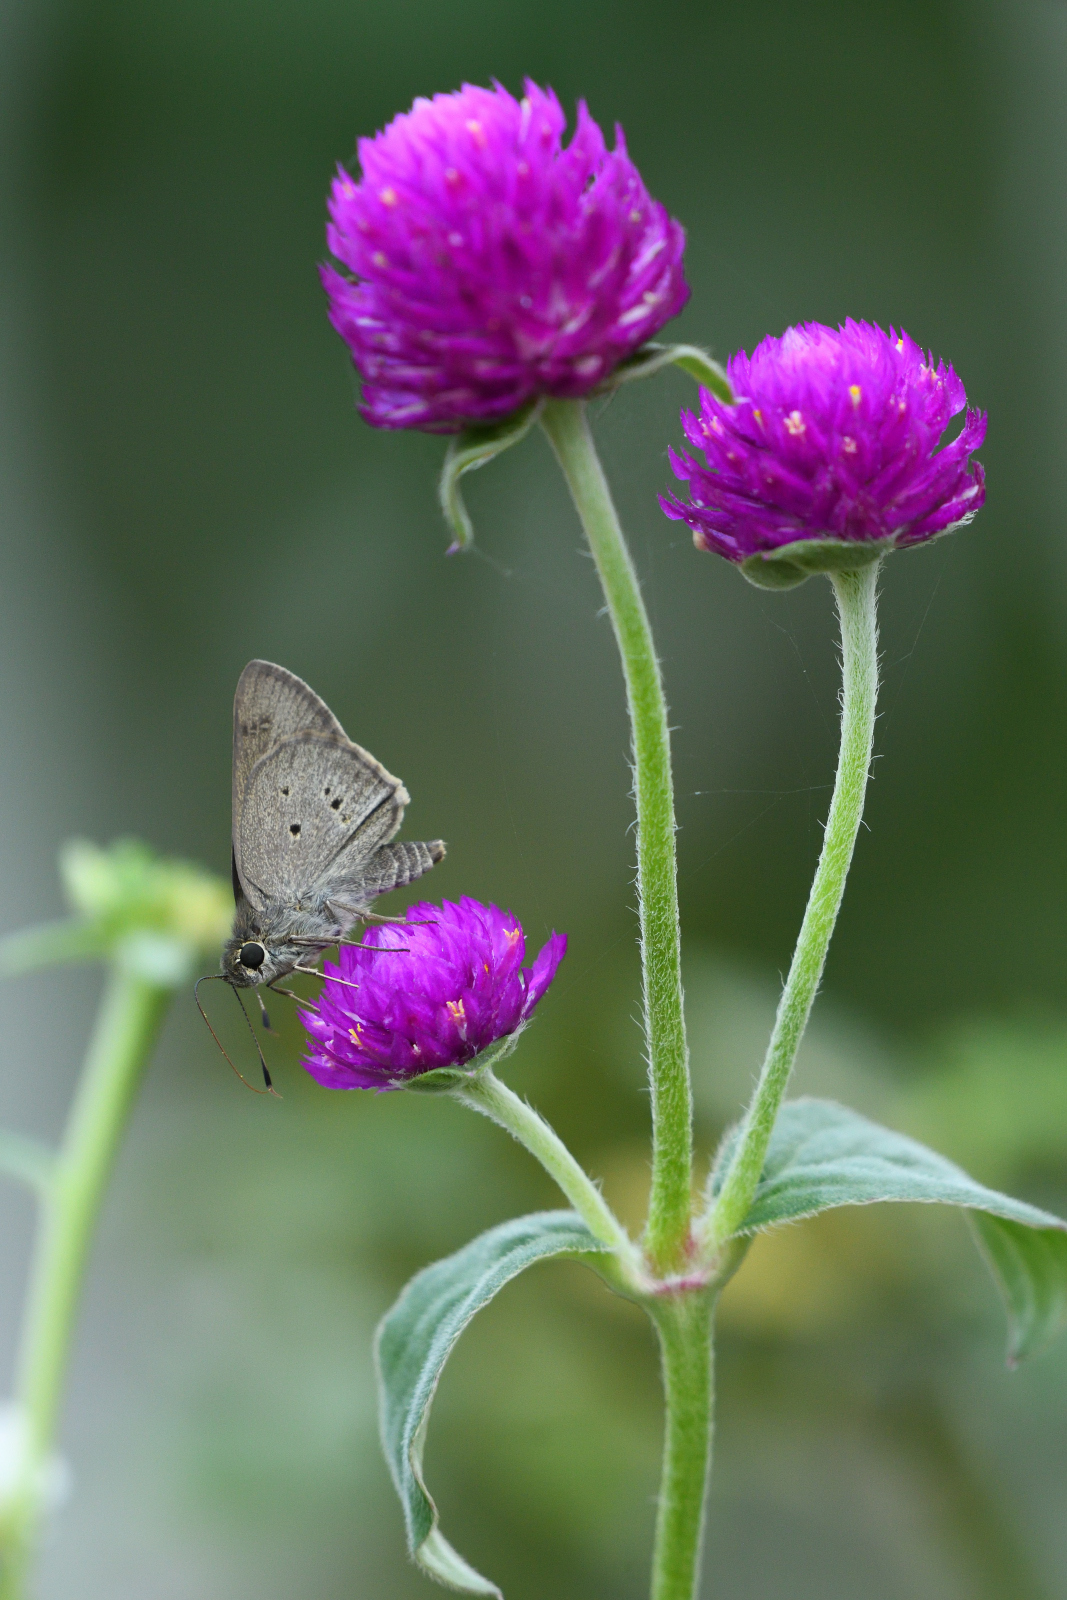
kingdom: Animalia
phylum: Arthropoda
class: Insecta
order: Lepidoptera
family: Hesperiidae
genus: Suastus
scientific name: Suastus gremius
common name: Indian palm bob
